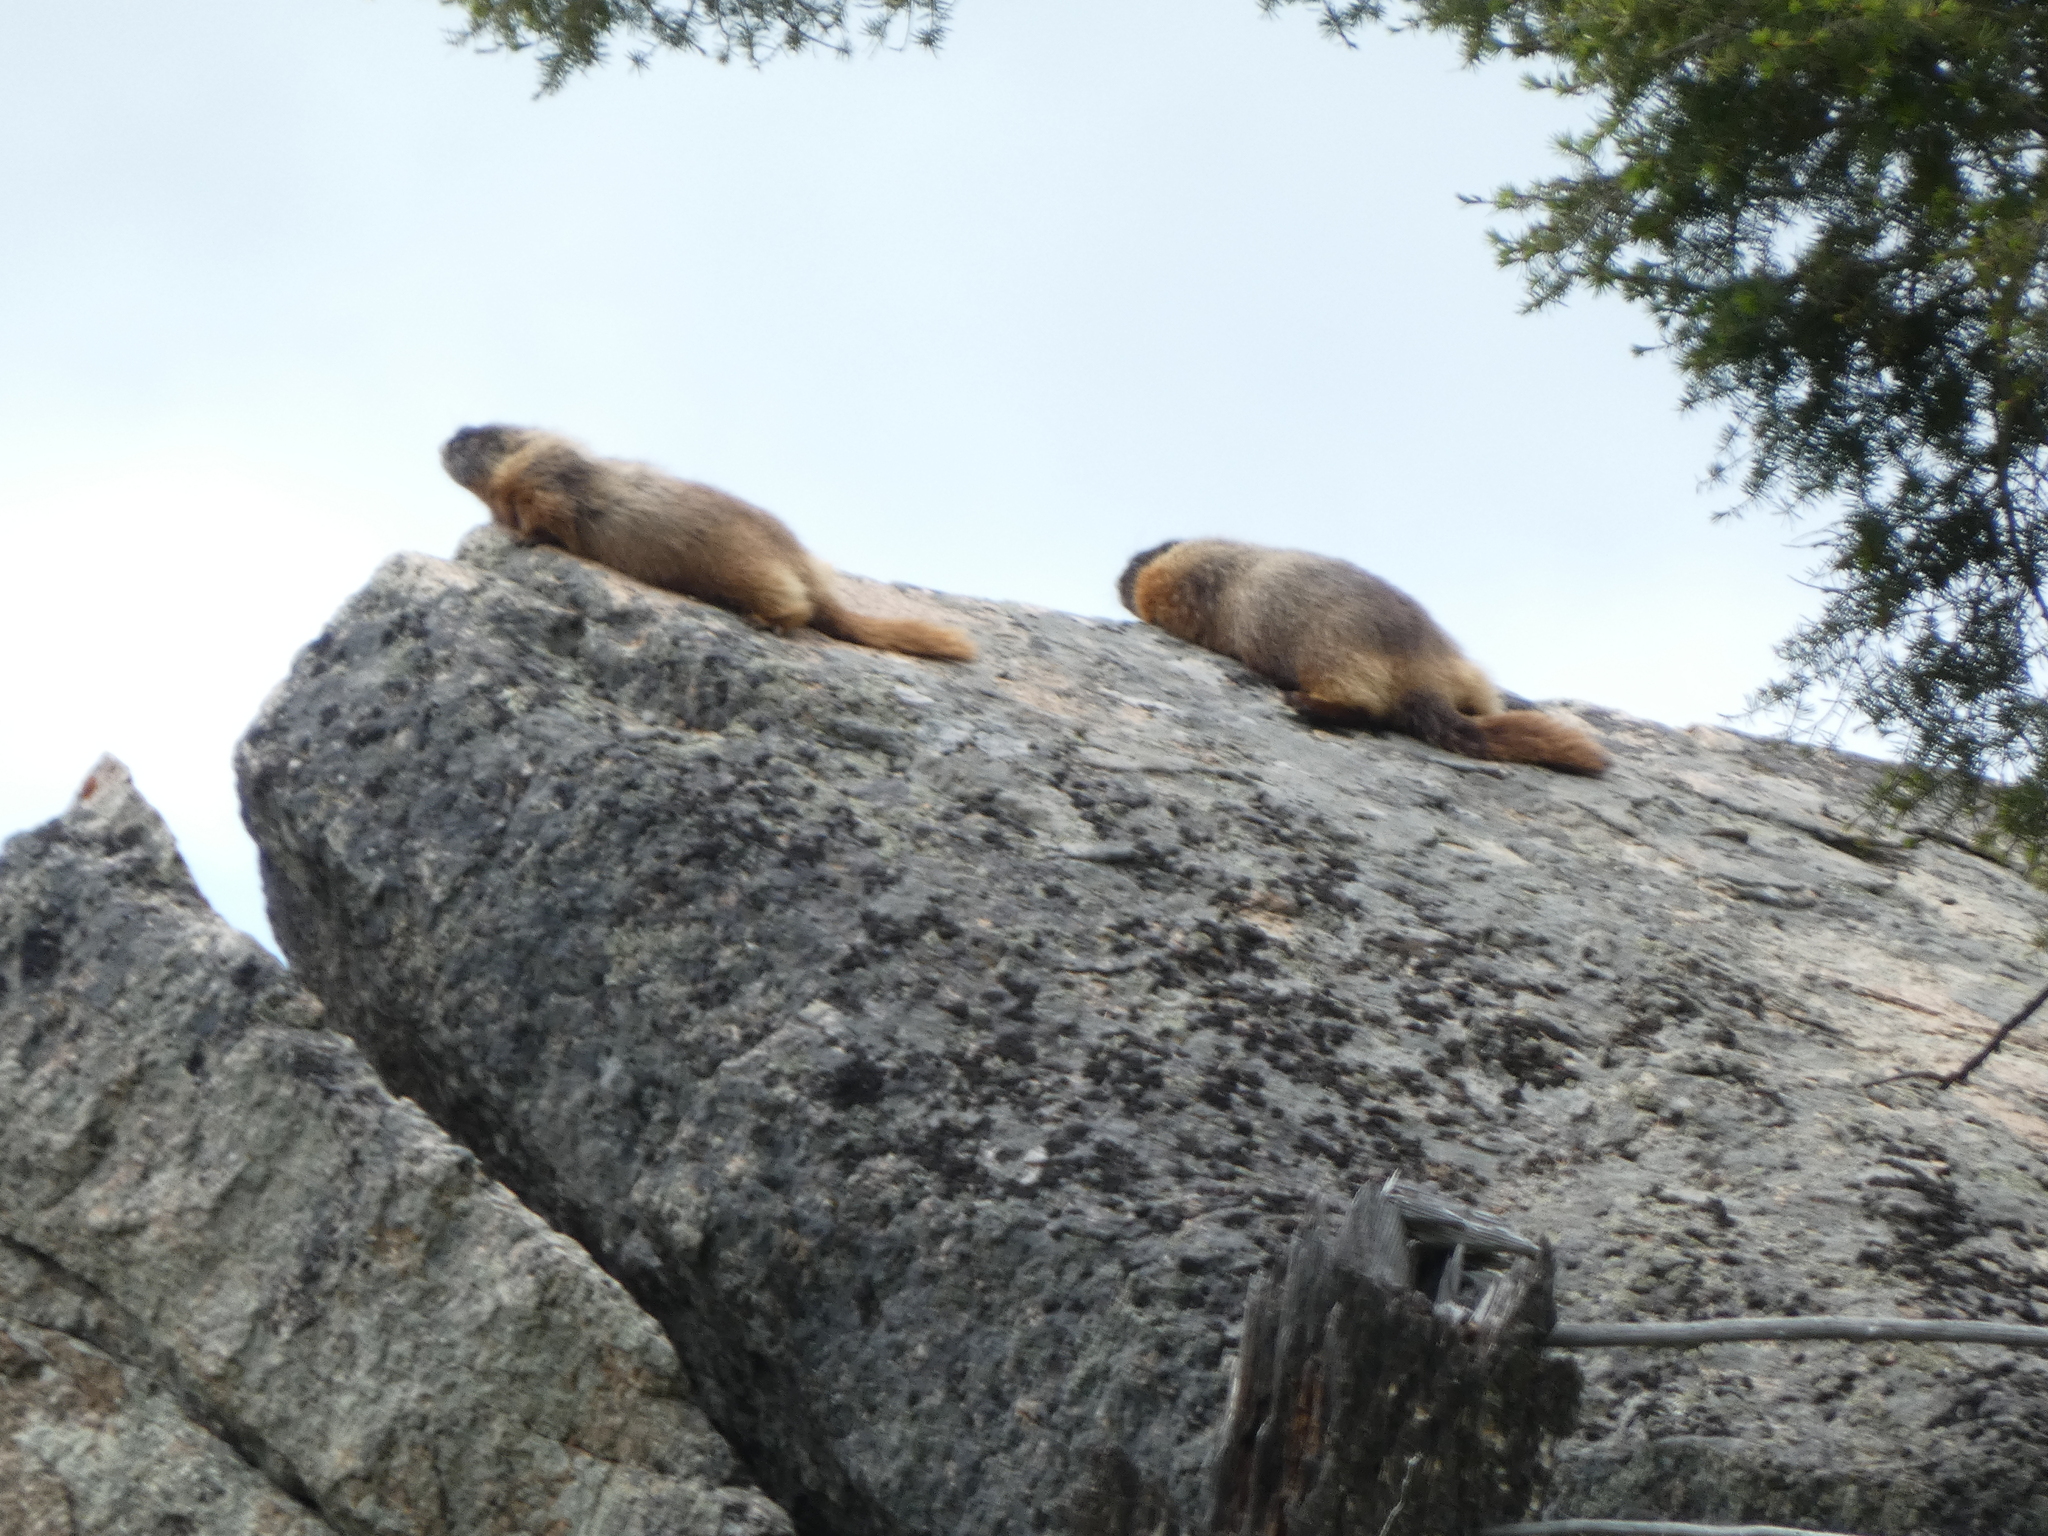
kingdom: Animalia
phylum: Chordata
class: Mammalia
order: Rodentia
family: Sciuridae
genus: Marmota
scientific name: Marmota flaviventris
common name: Yellow-bellied marmot
